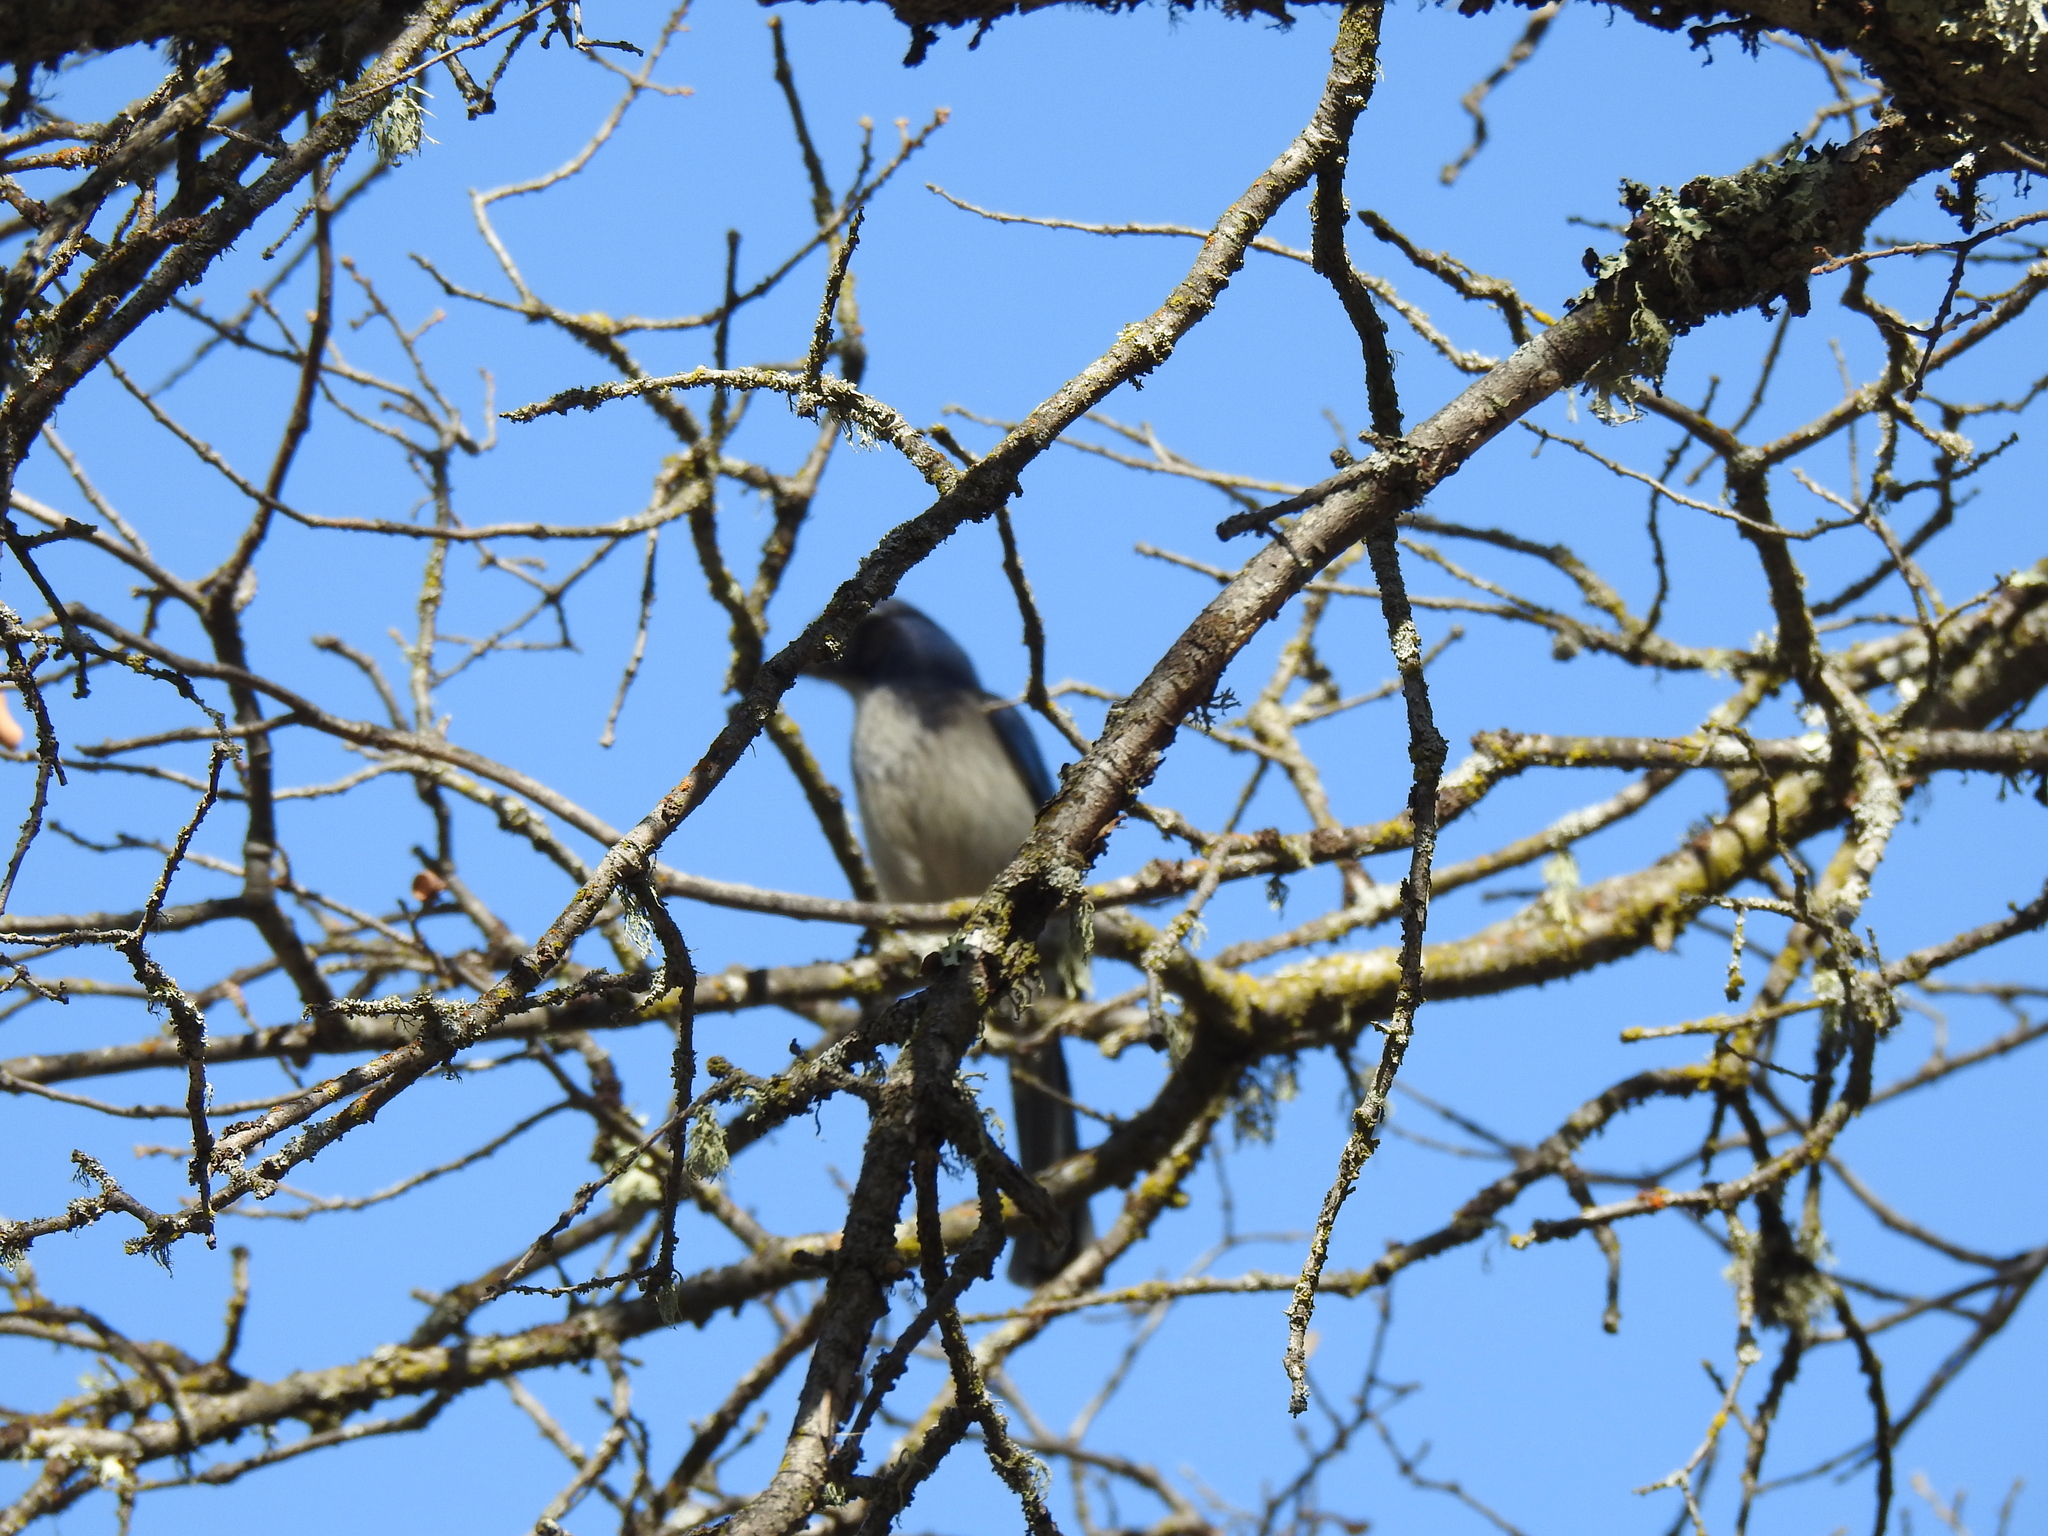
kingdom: Animalia
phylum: Chordata
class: Aves
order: Passeriformes
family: Corvidae
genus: Aphelocoma
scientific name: Aphelocoma californica
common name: California scrub-jay
